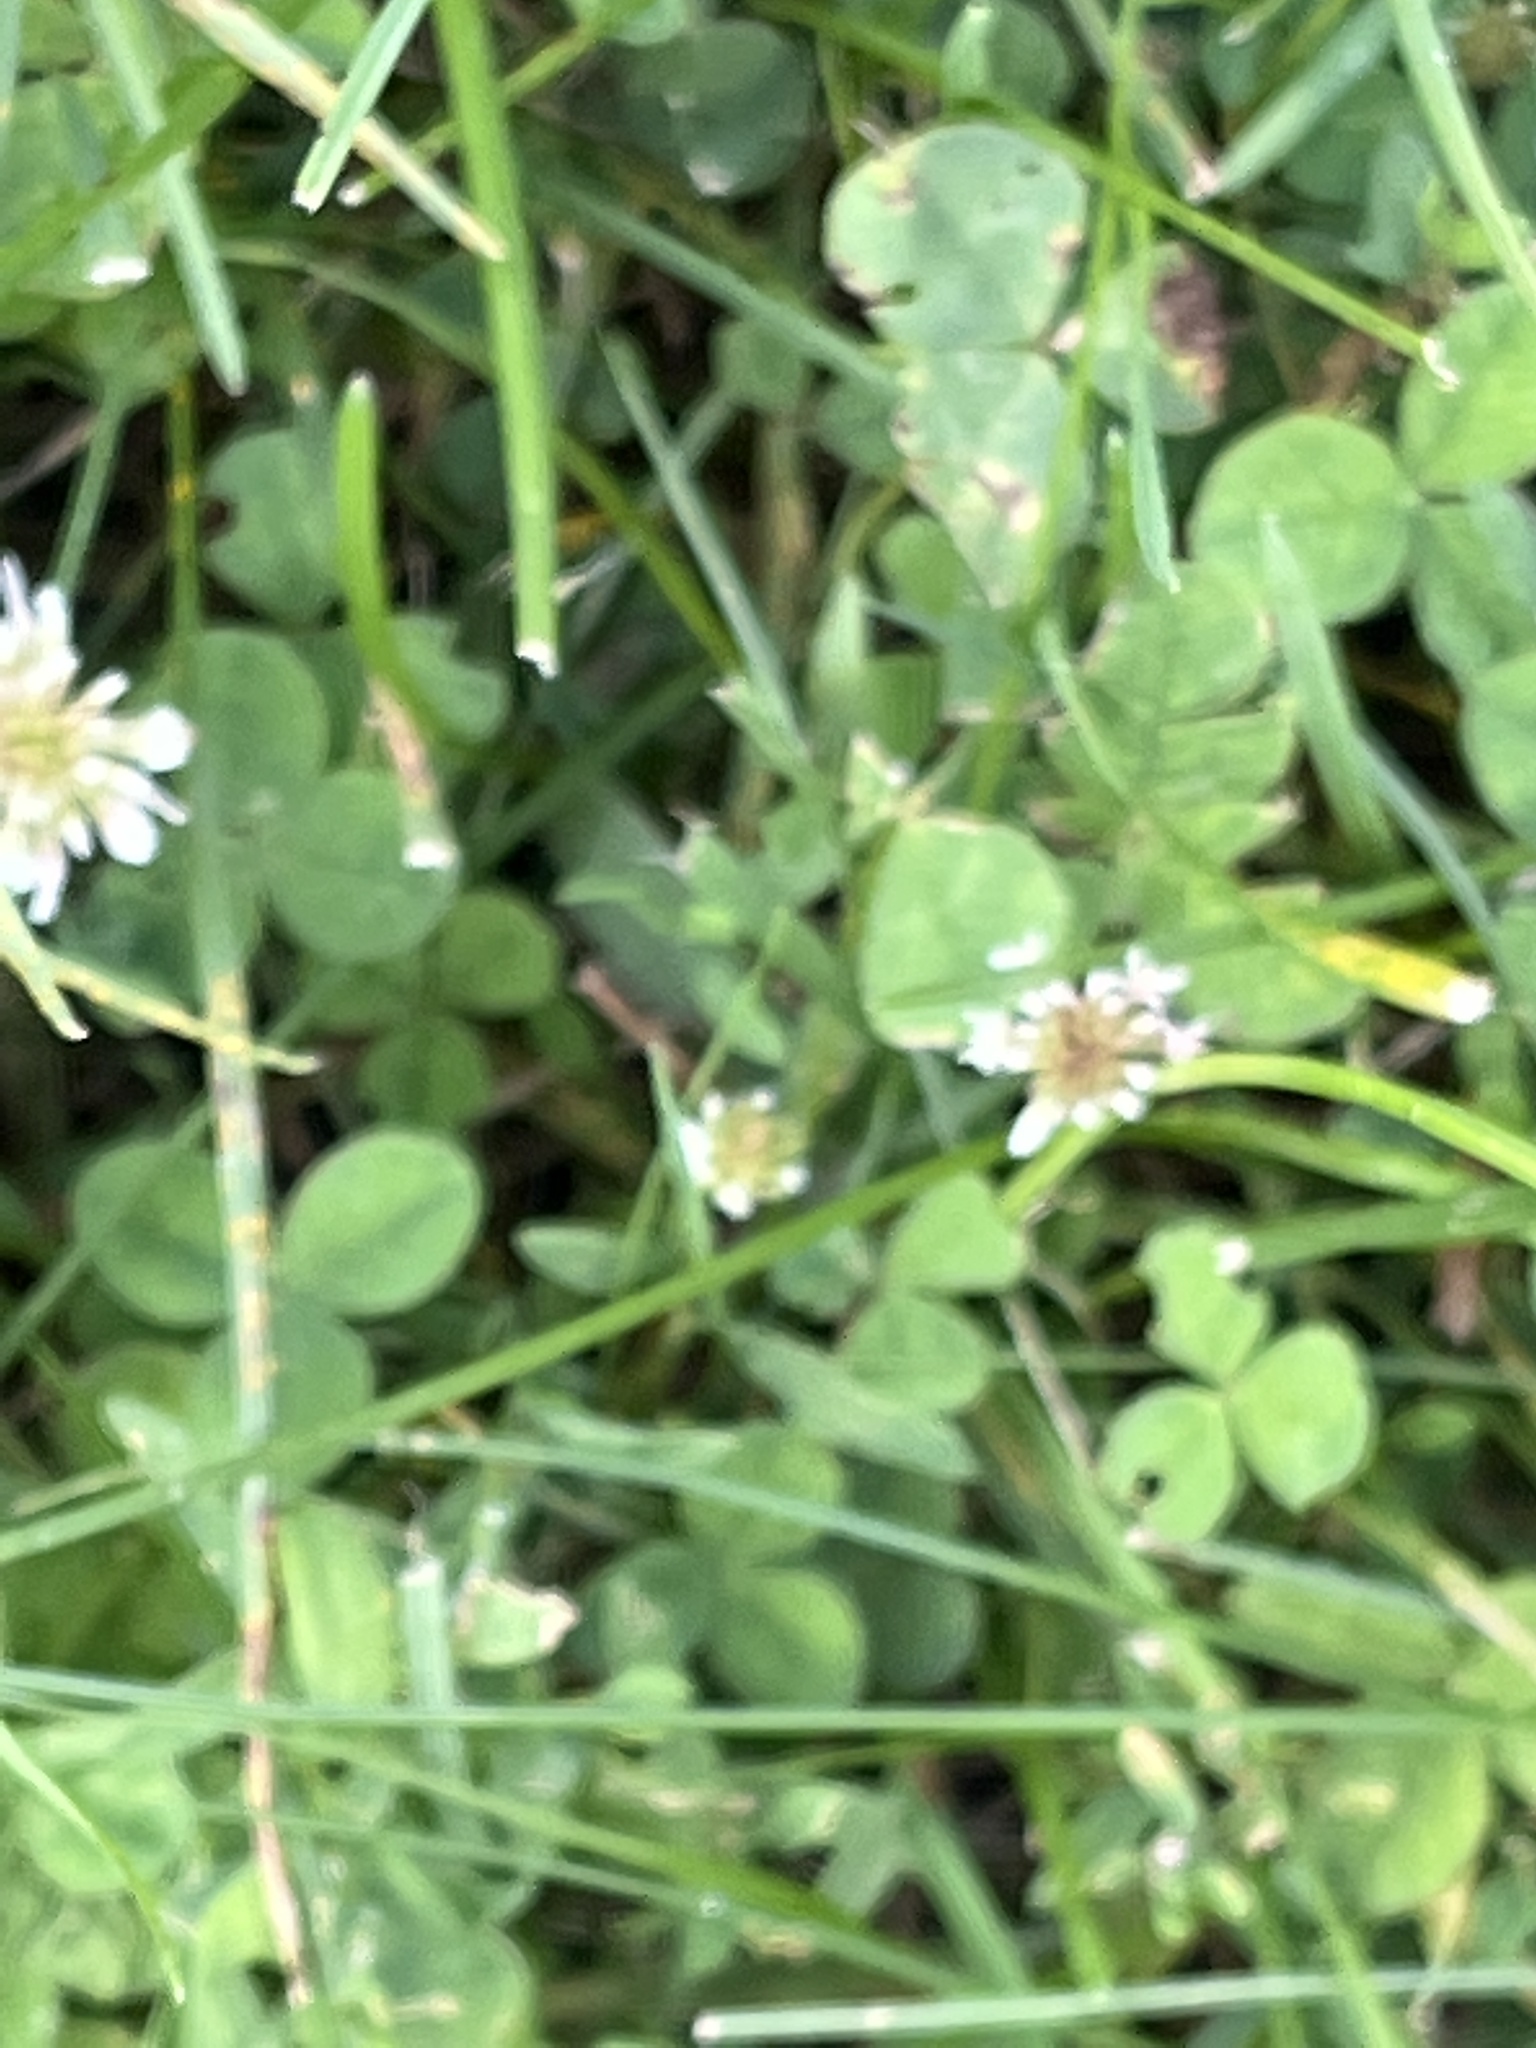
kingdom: Plantae
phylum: Tracheophyta
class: Magnoliopsida
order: Fabales
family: Fabaceae
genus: Trifolium
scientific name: Trifolium repens
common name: White clover
